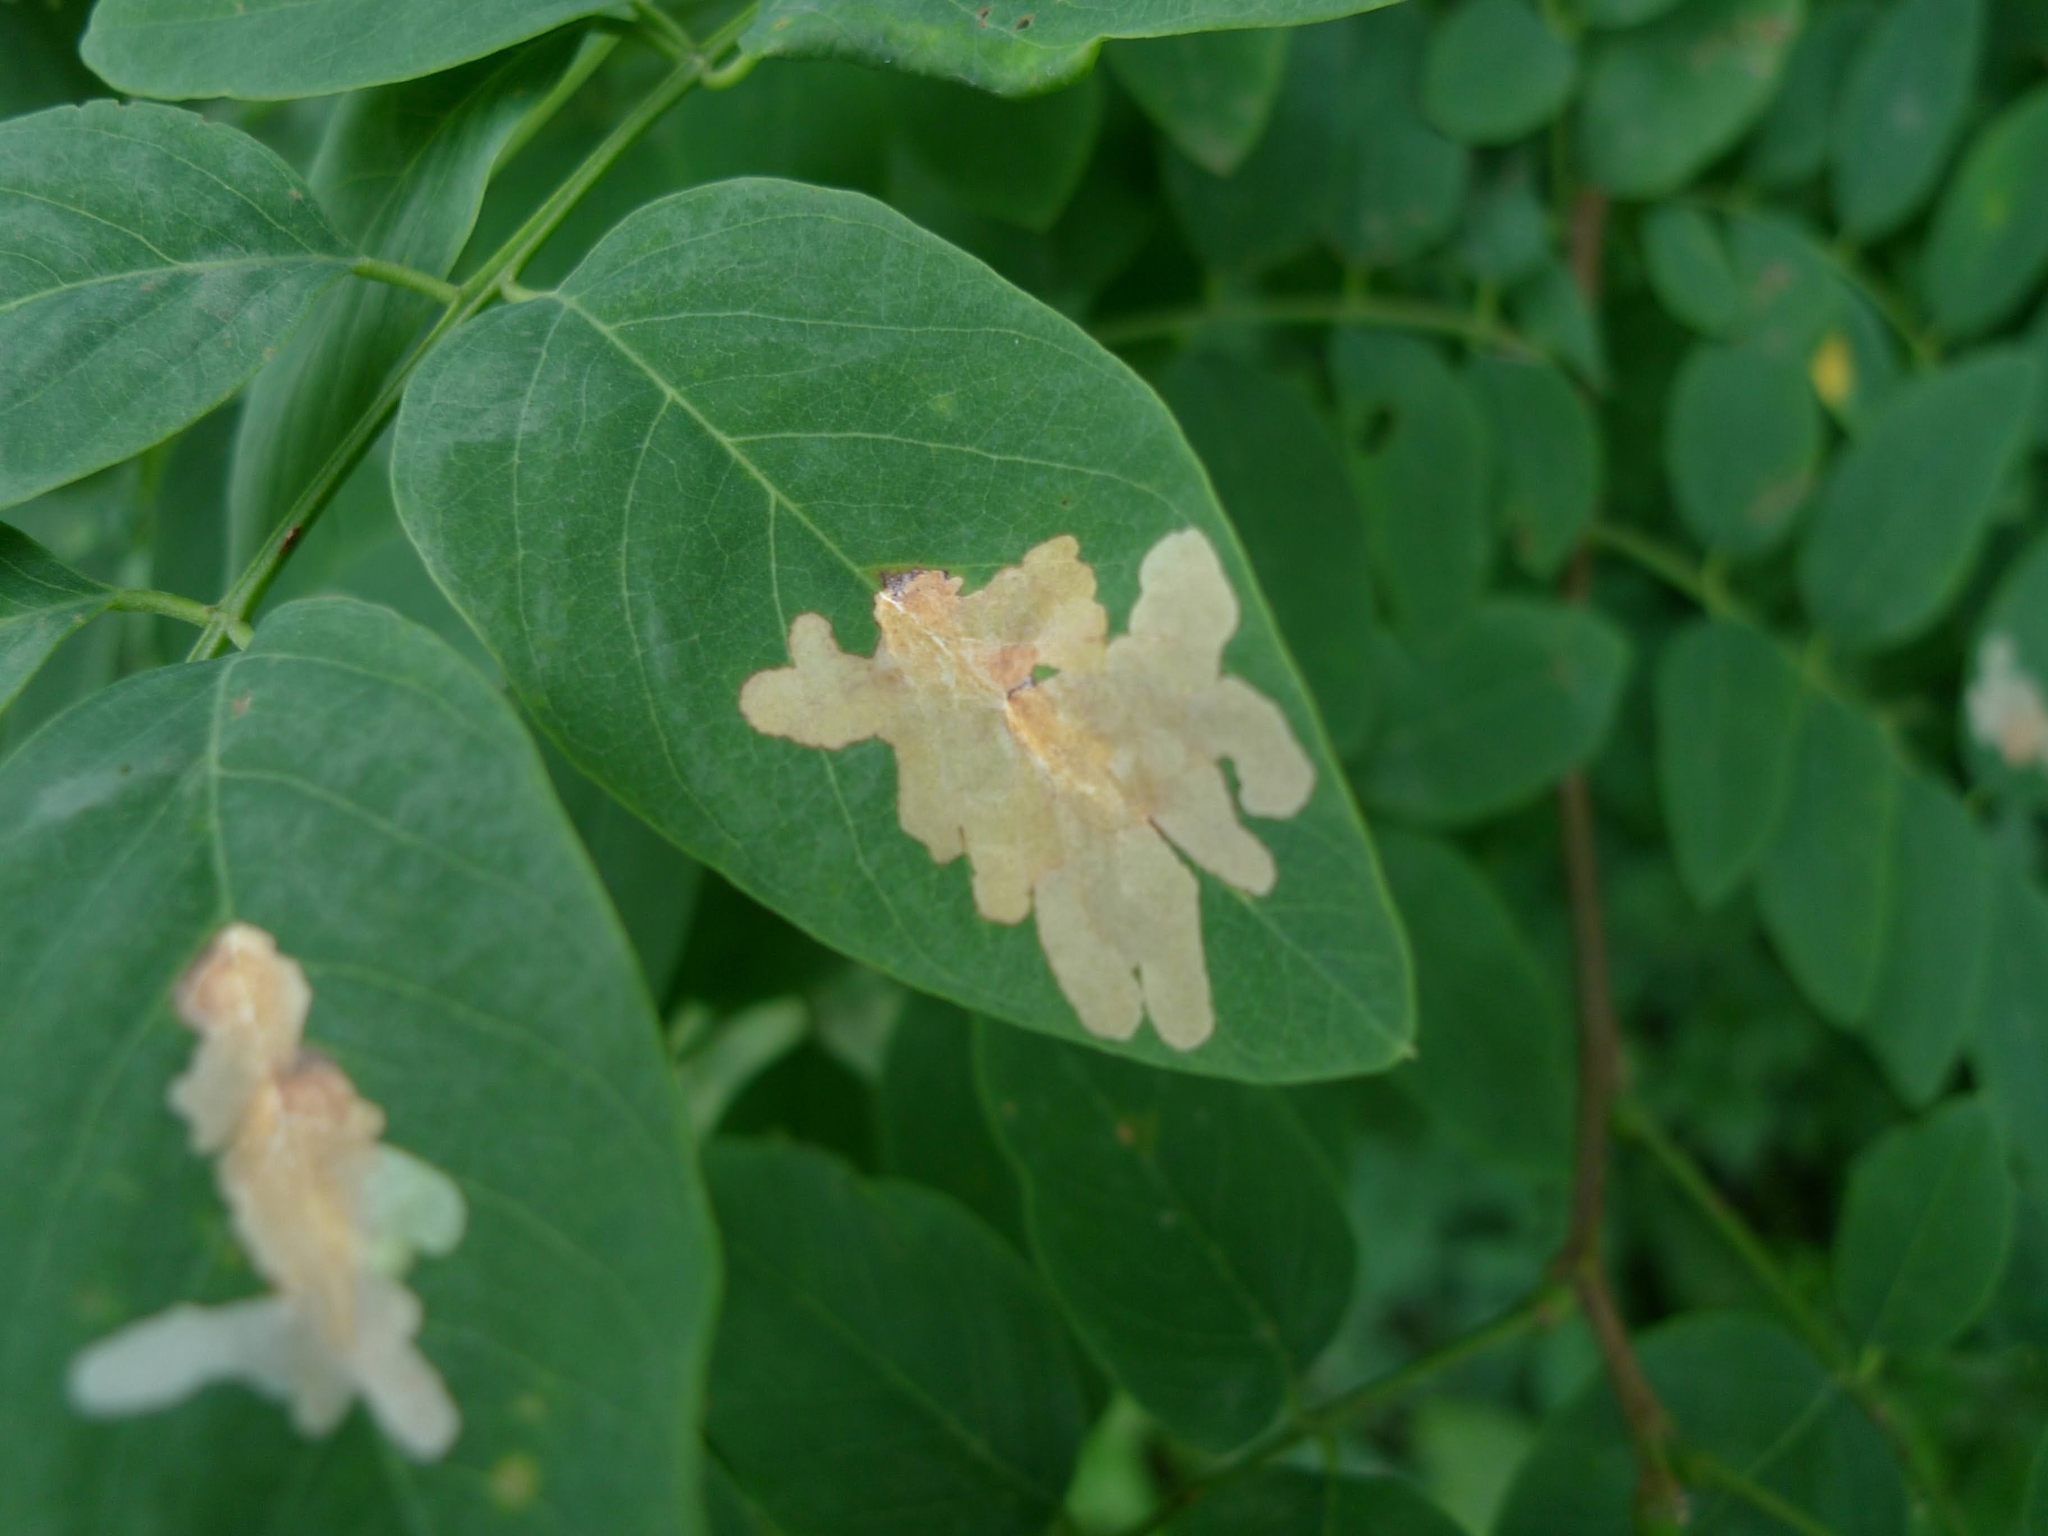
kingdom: Animalia
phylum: Arthropoda
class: Insecta
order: Lepidoptera
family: Gracillariidae
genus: Parectopa
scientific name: Parectopa robiniella
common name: Locust digitate leafminer
